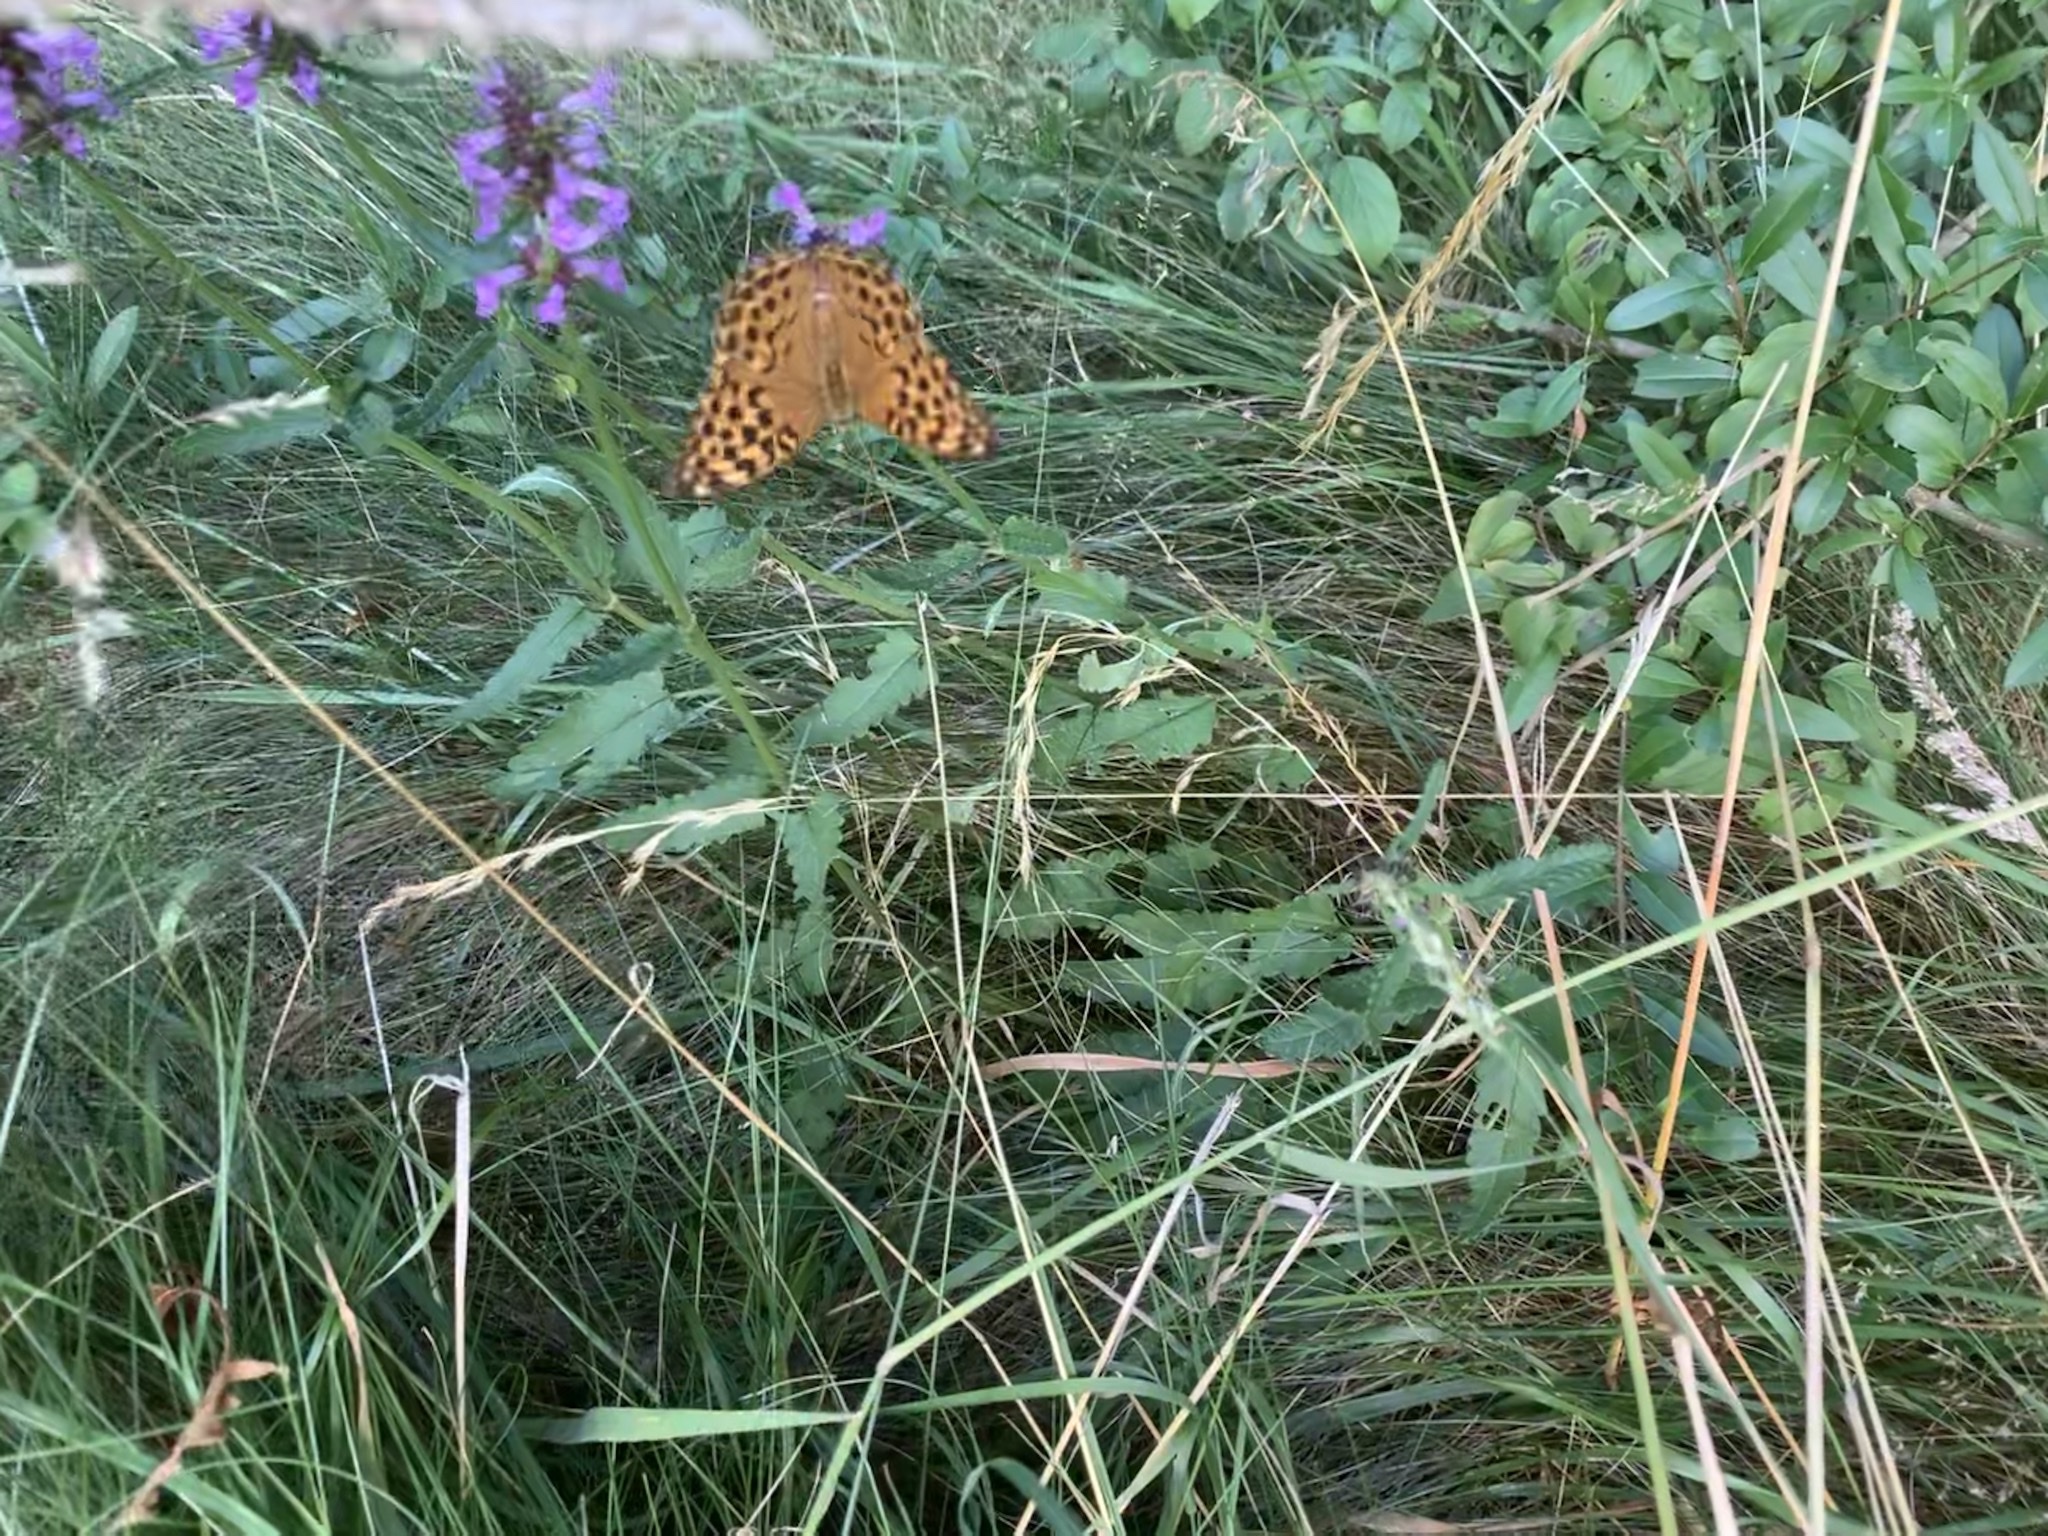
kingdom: Animalia
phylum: Arthropoda
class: Insecta
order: Lepidoptera
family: Nymphalidae
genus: Argynnis
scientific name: Argynnis paphia
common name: Silver-washed fritillary
